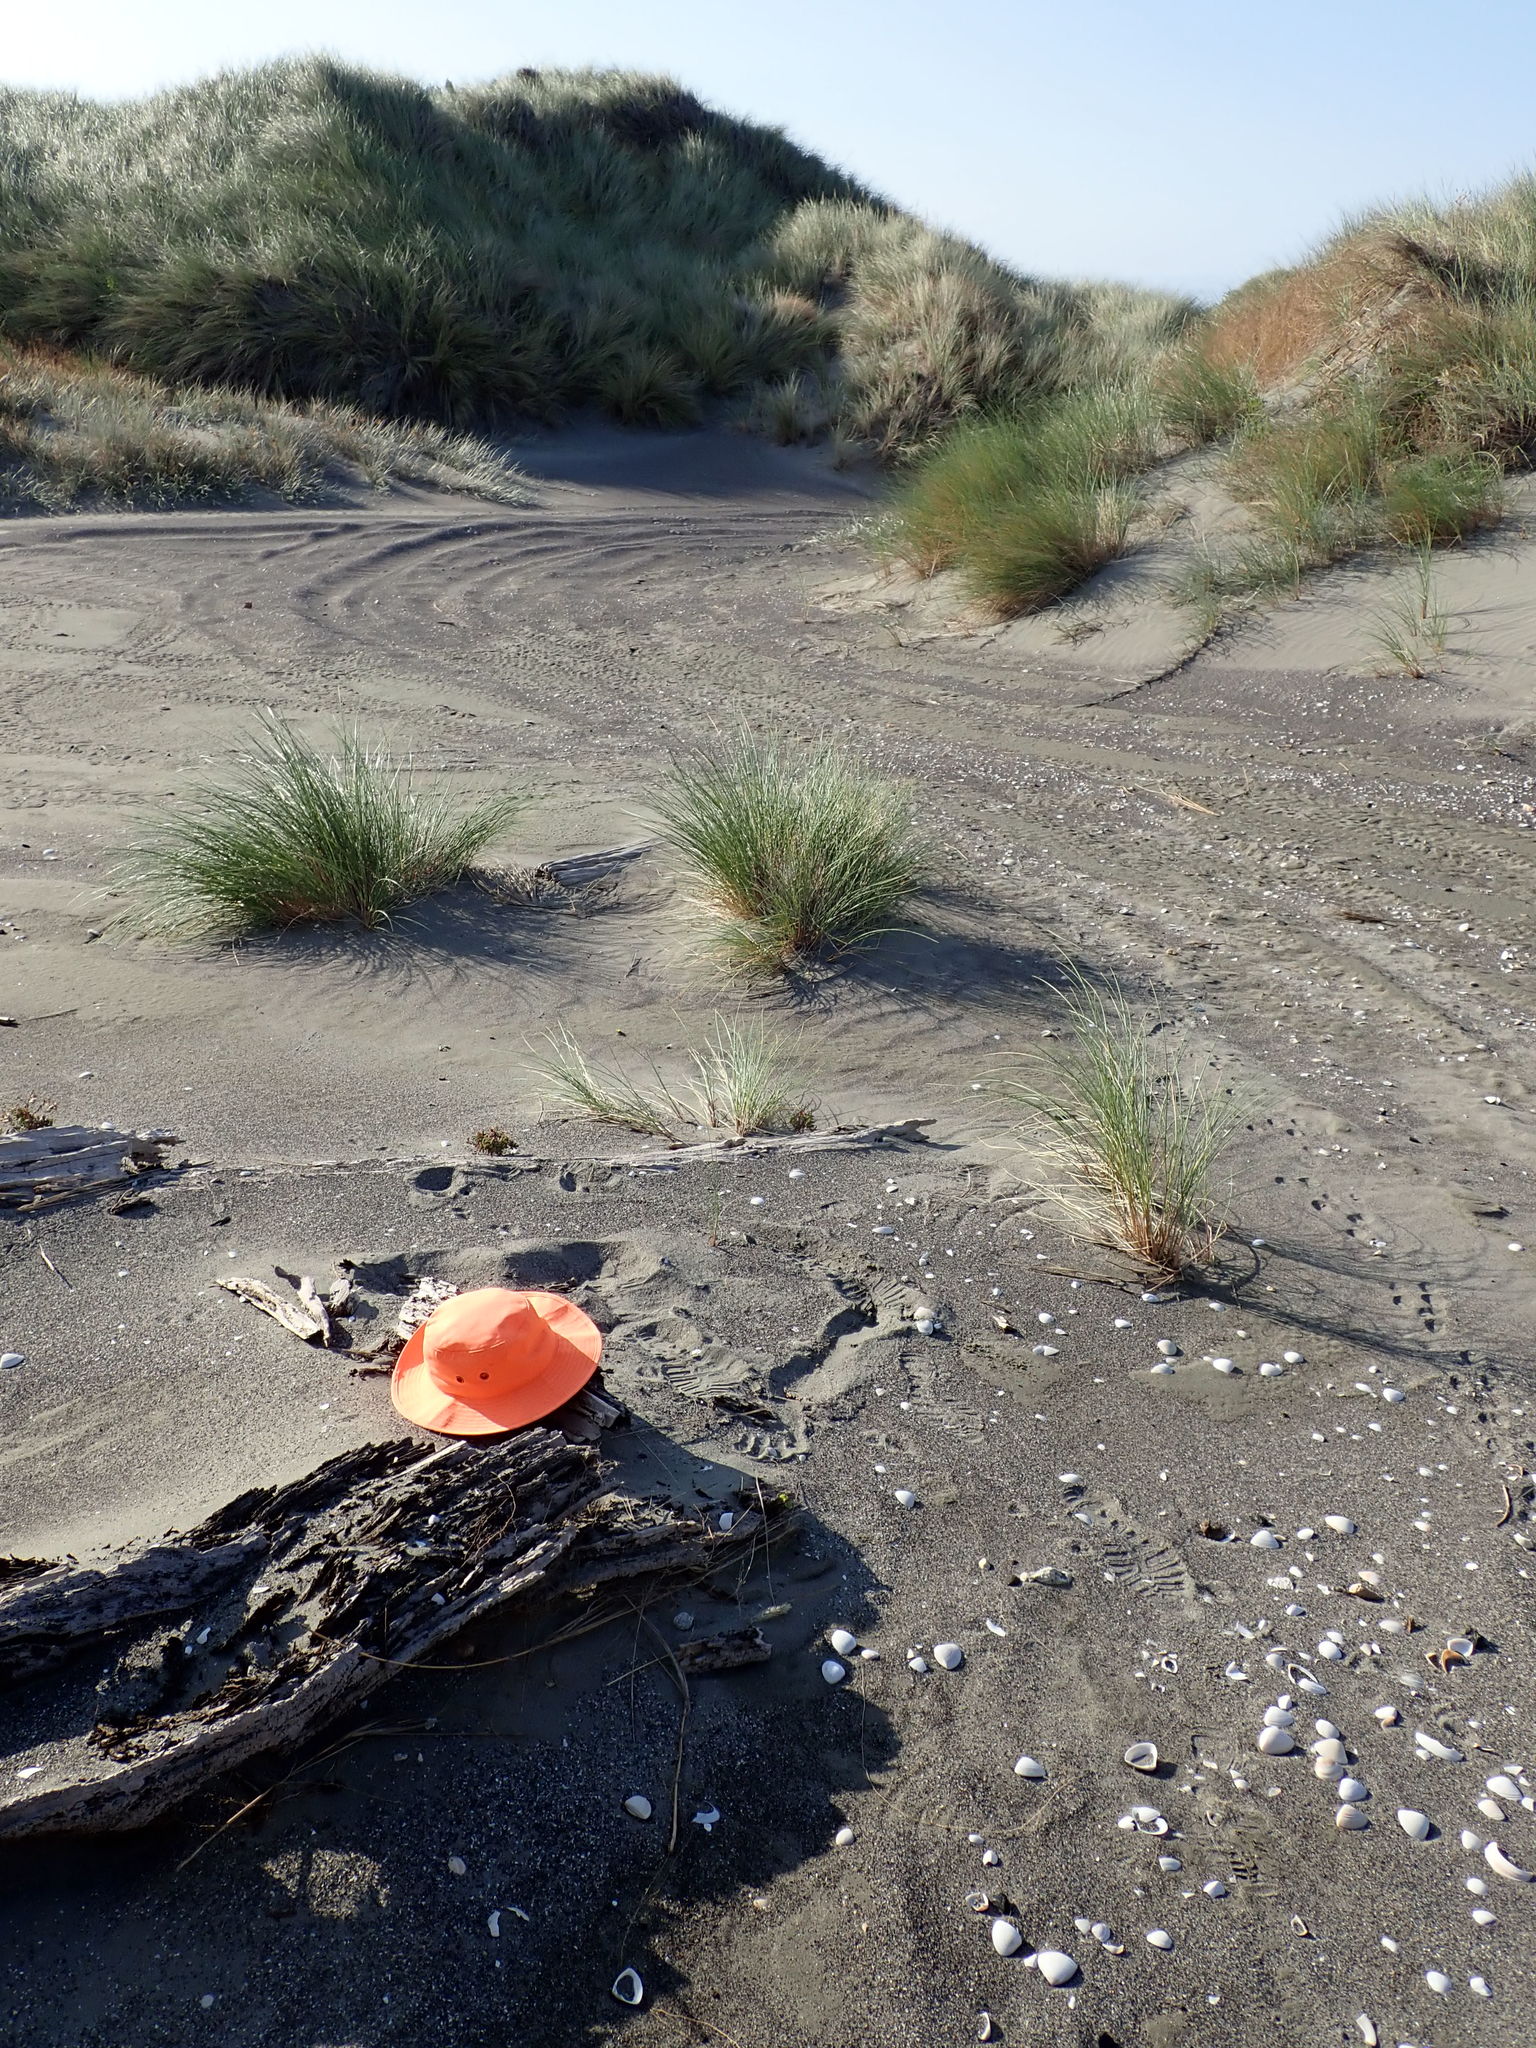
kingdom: Animalia
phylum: Arthropoda
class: Arachnida
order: Araneae
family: Lycosidae
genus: Anoteropsis
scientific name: Anoteropsis litoralis
